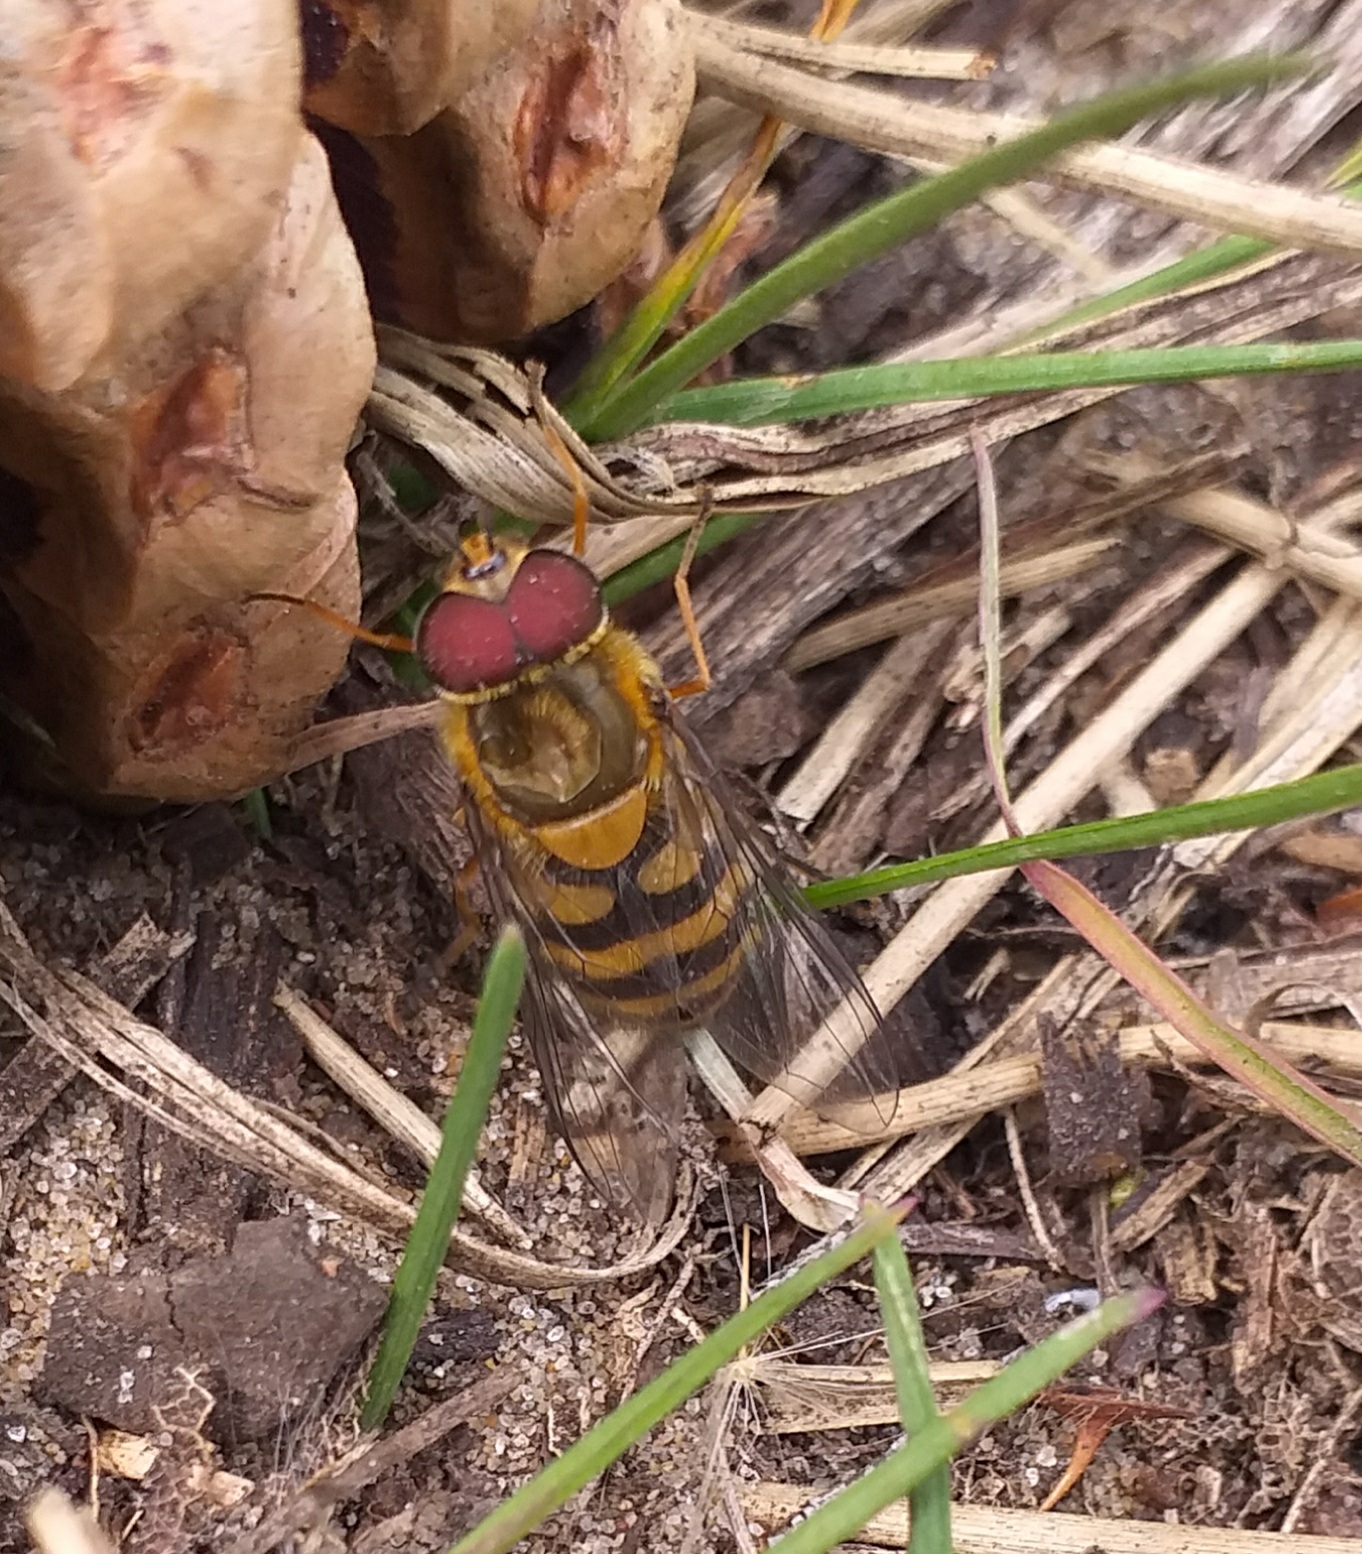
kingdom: Animalia
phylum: Arthropoda
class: Insecta
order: Diptera
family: Syrphidae
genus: Syrphus
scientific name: Syrphus torvus
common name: Hairy-eyed flower fly
